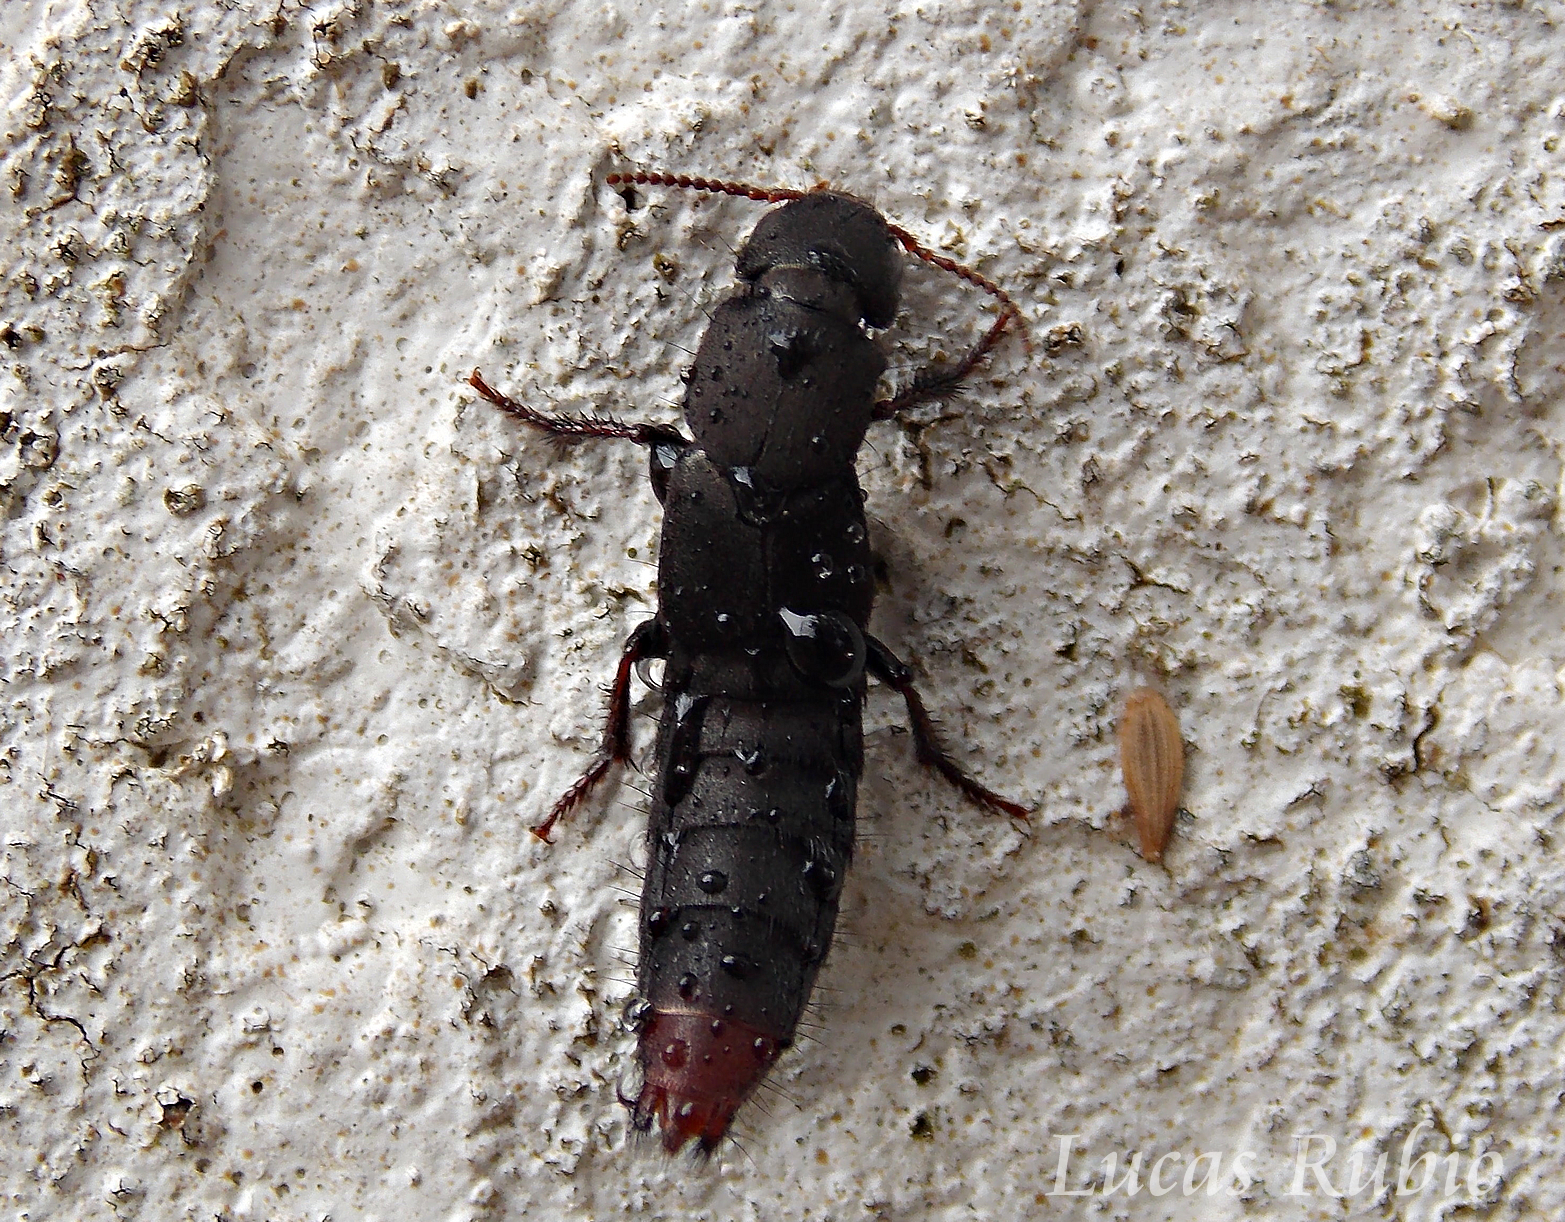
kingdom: Animalia
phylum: Arthropoda
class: Insecta
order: Coleoptera
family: Staphylinidae
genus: Platydracus
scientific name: Platydracus scabrosus
